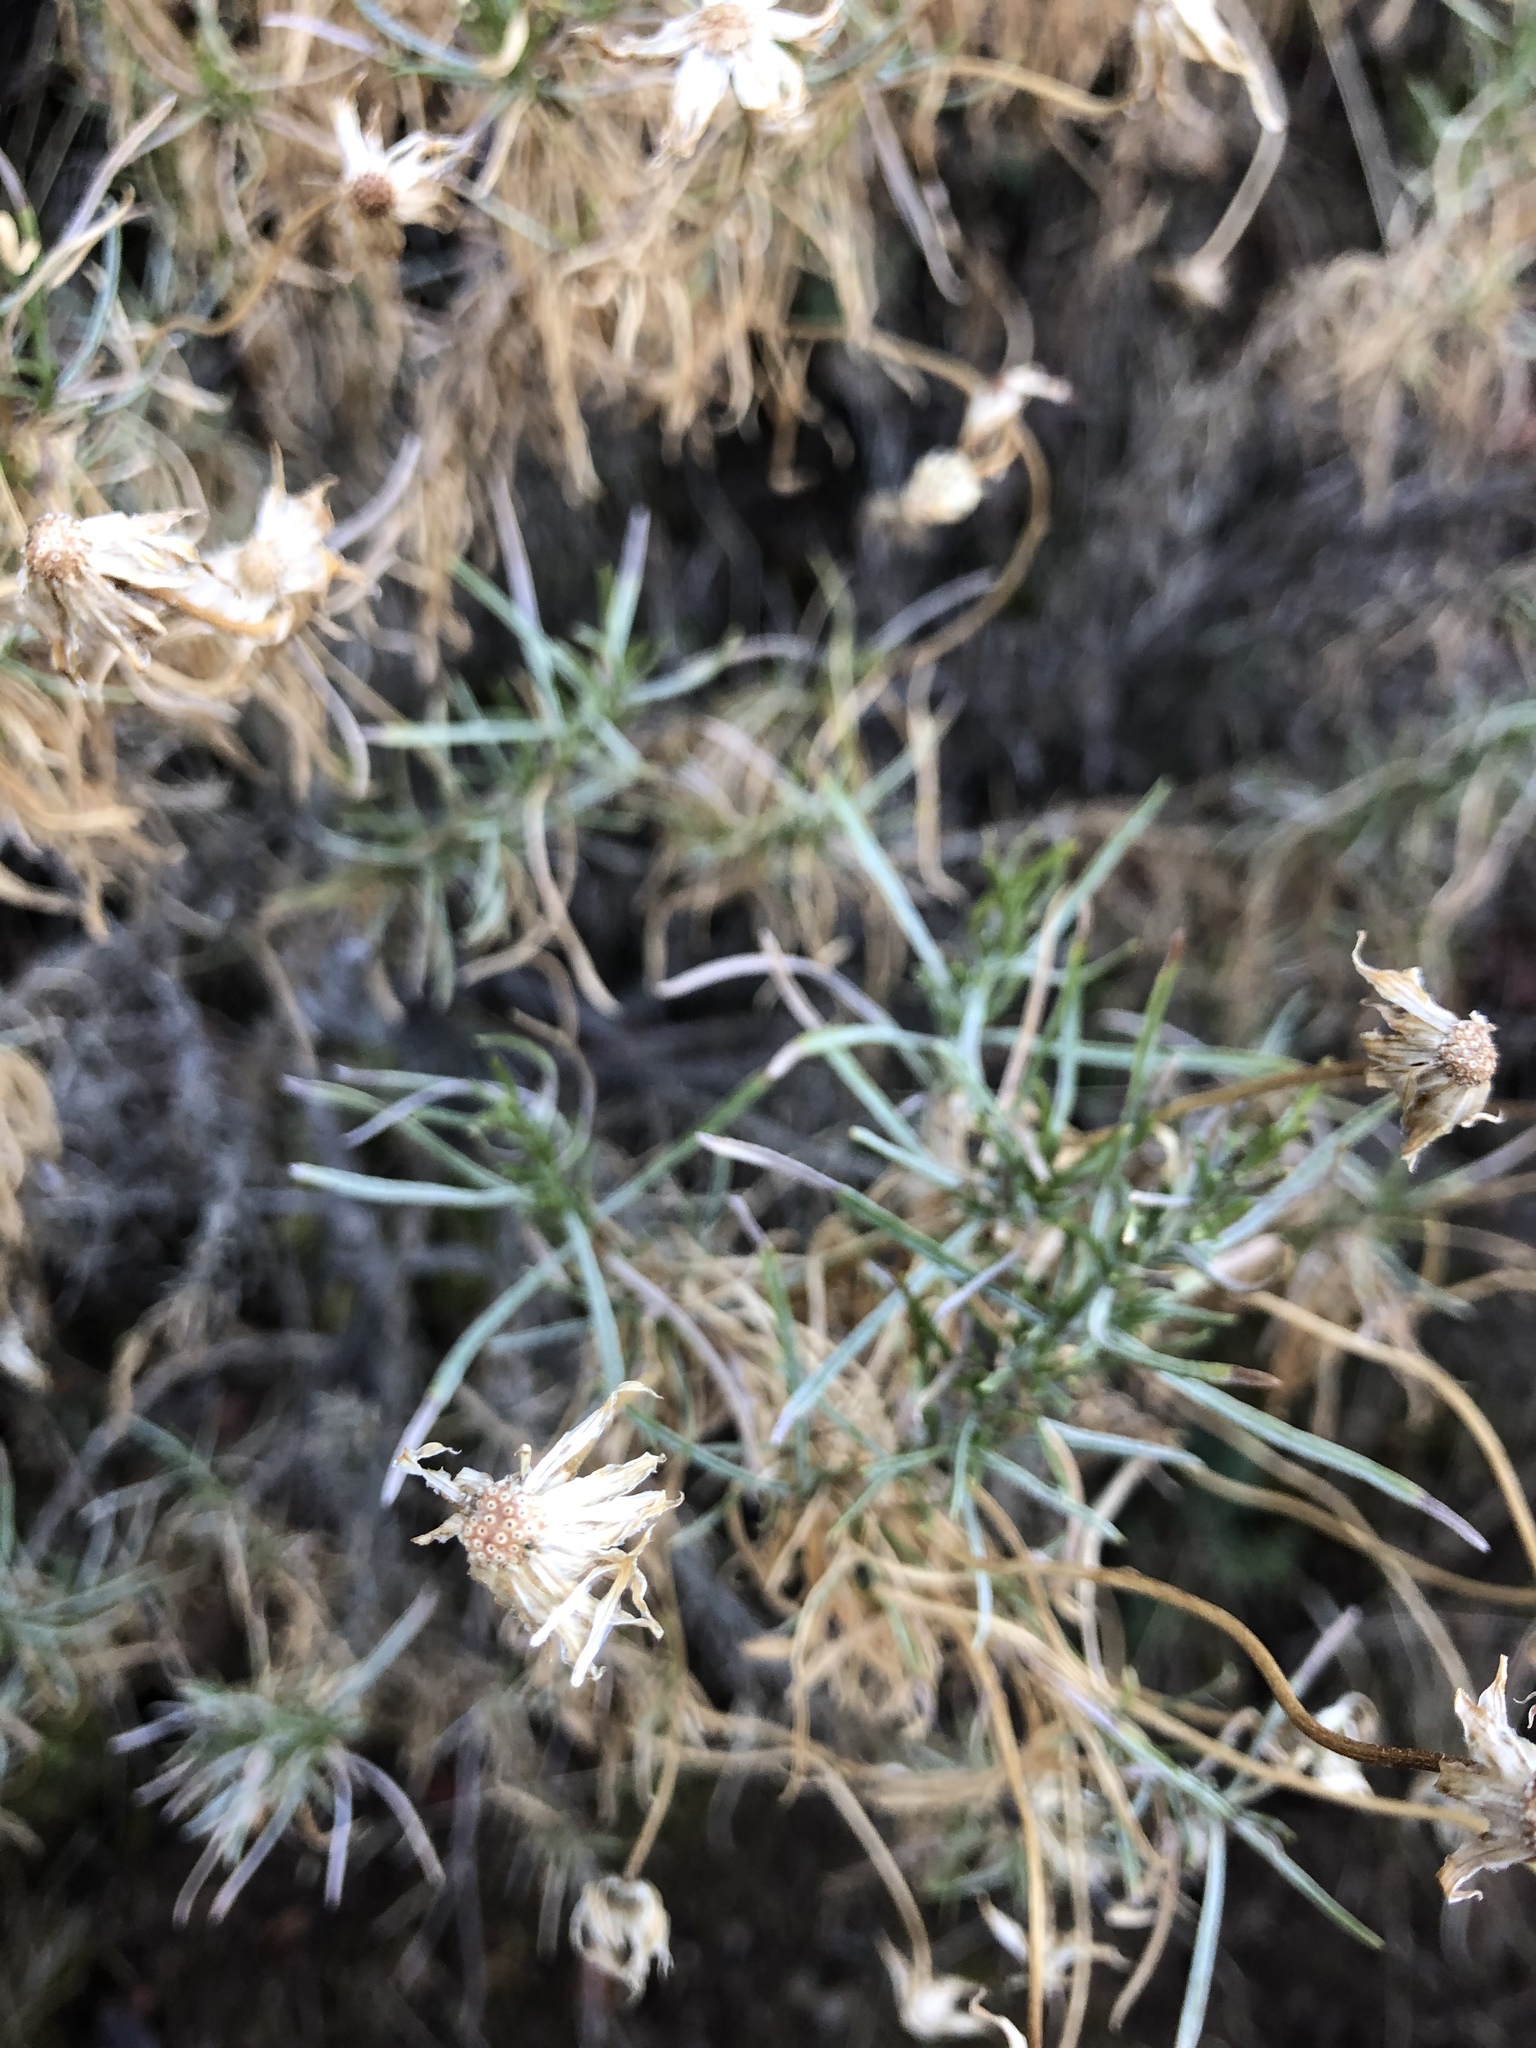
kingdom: Plantae
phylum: Tracheophyta
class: Magnoliopsida
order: Asterales
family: Asteraceae
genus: Ericameria
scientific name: Ericameria linearifolia
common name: Interior goldenbush
